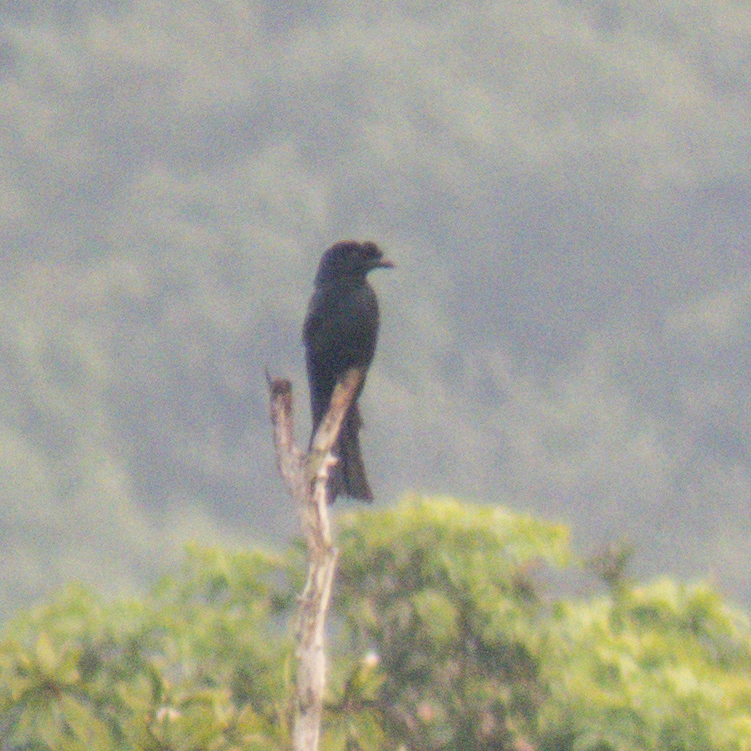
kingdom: Animalia
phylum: Chordata
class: Aves
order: Passeriformes
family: Dicruridae
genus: Dicrurus
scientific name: Dicrurus paradiseus
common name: Greater racket-tailed drongo
